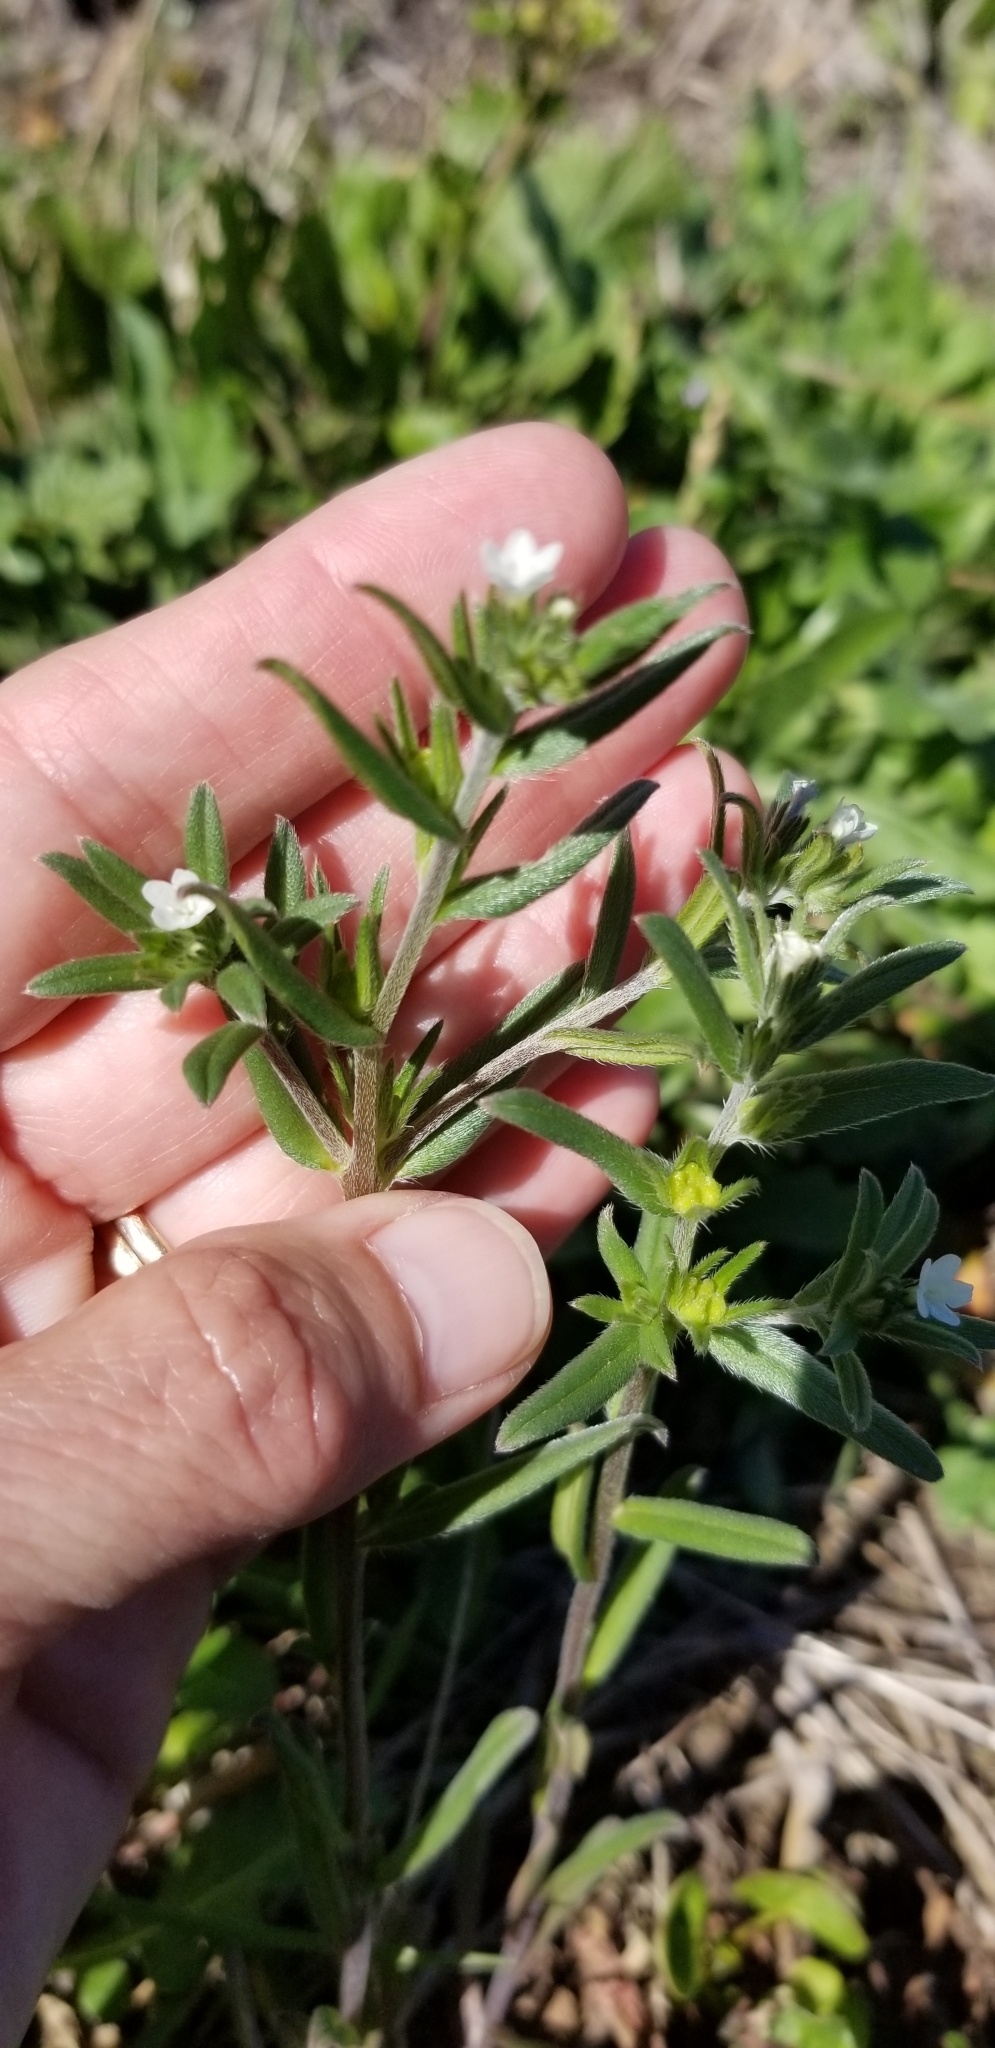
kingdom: Plantae
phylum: Tracheophyta
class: Magnoliopsida
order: Boraginales
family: Boraginaceae
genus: Buglossoides
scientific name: Buglossoides arvensis
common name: Corn gromwell
